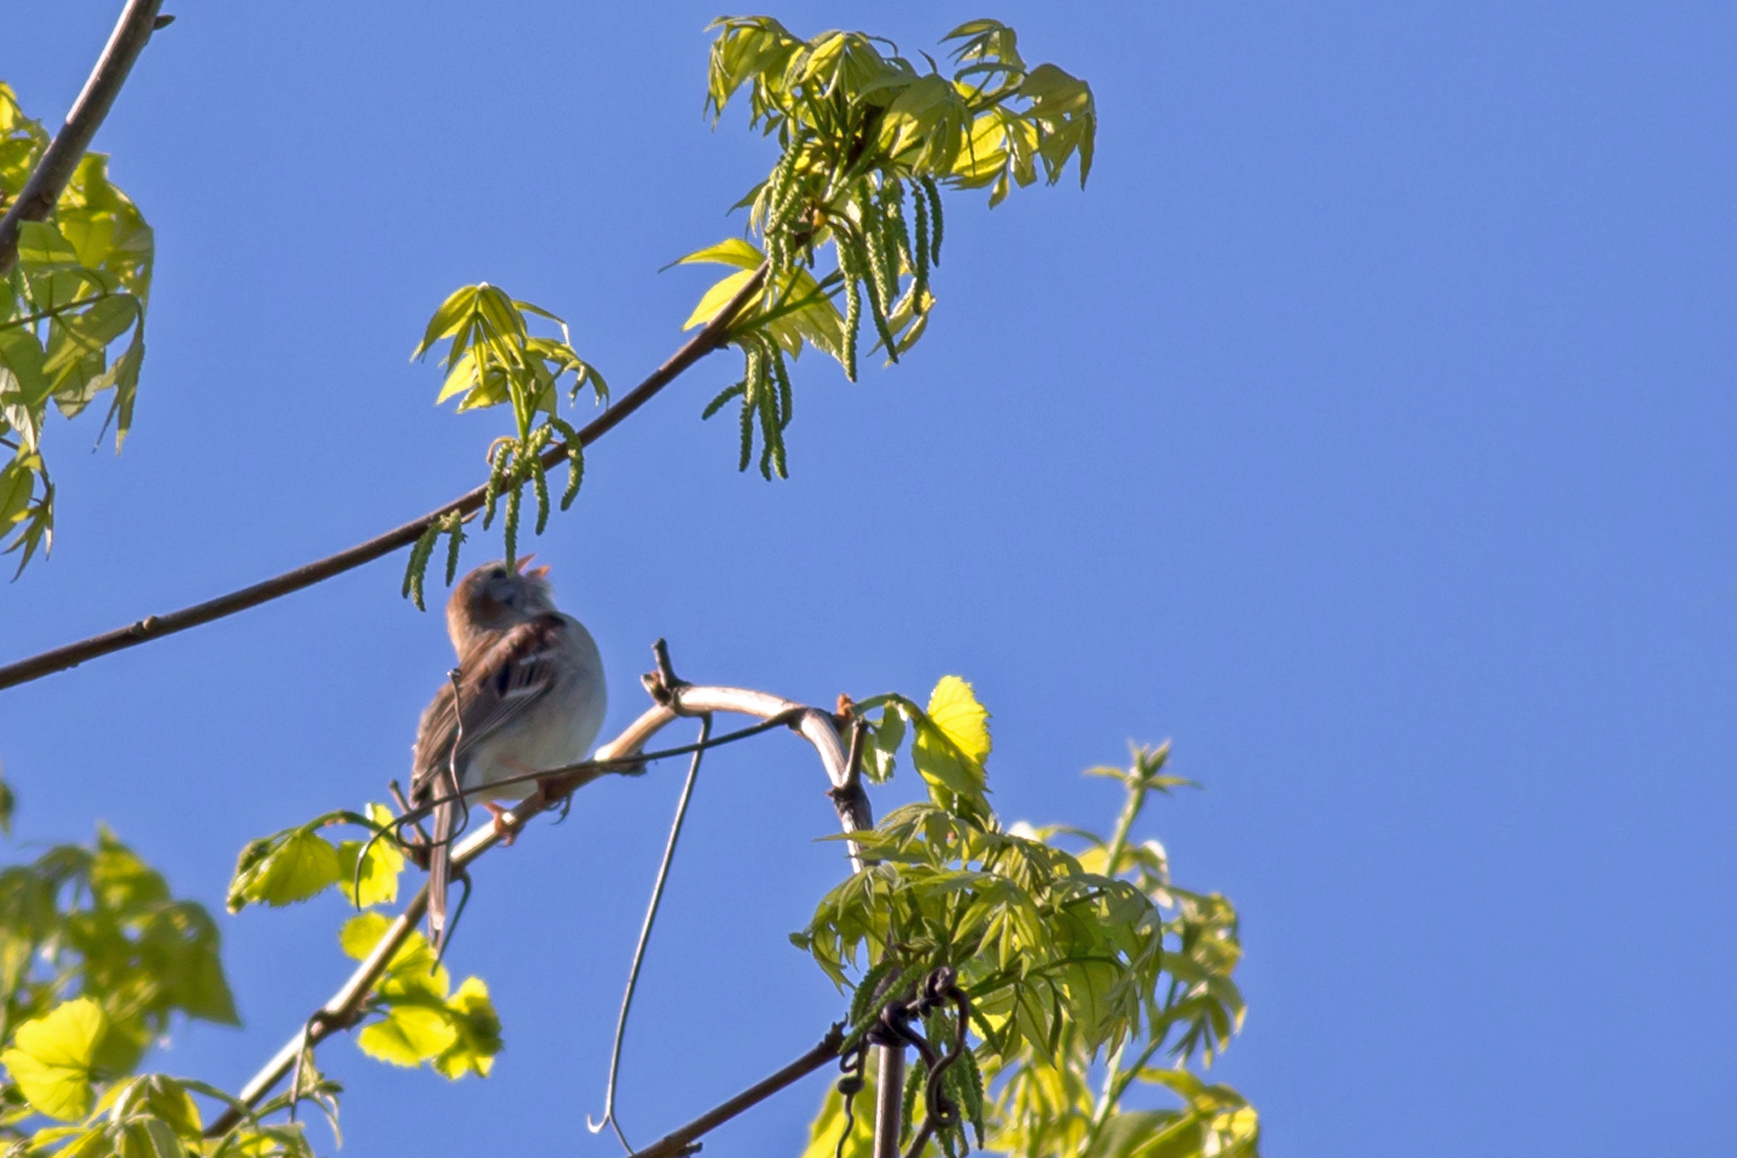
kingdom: Animalia
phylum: Chordata
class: Aves
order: Passeriformes
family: Passerellidae
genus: Spizella
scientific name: Spizella pusilla
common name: Field sparrow
